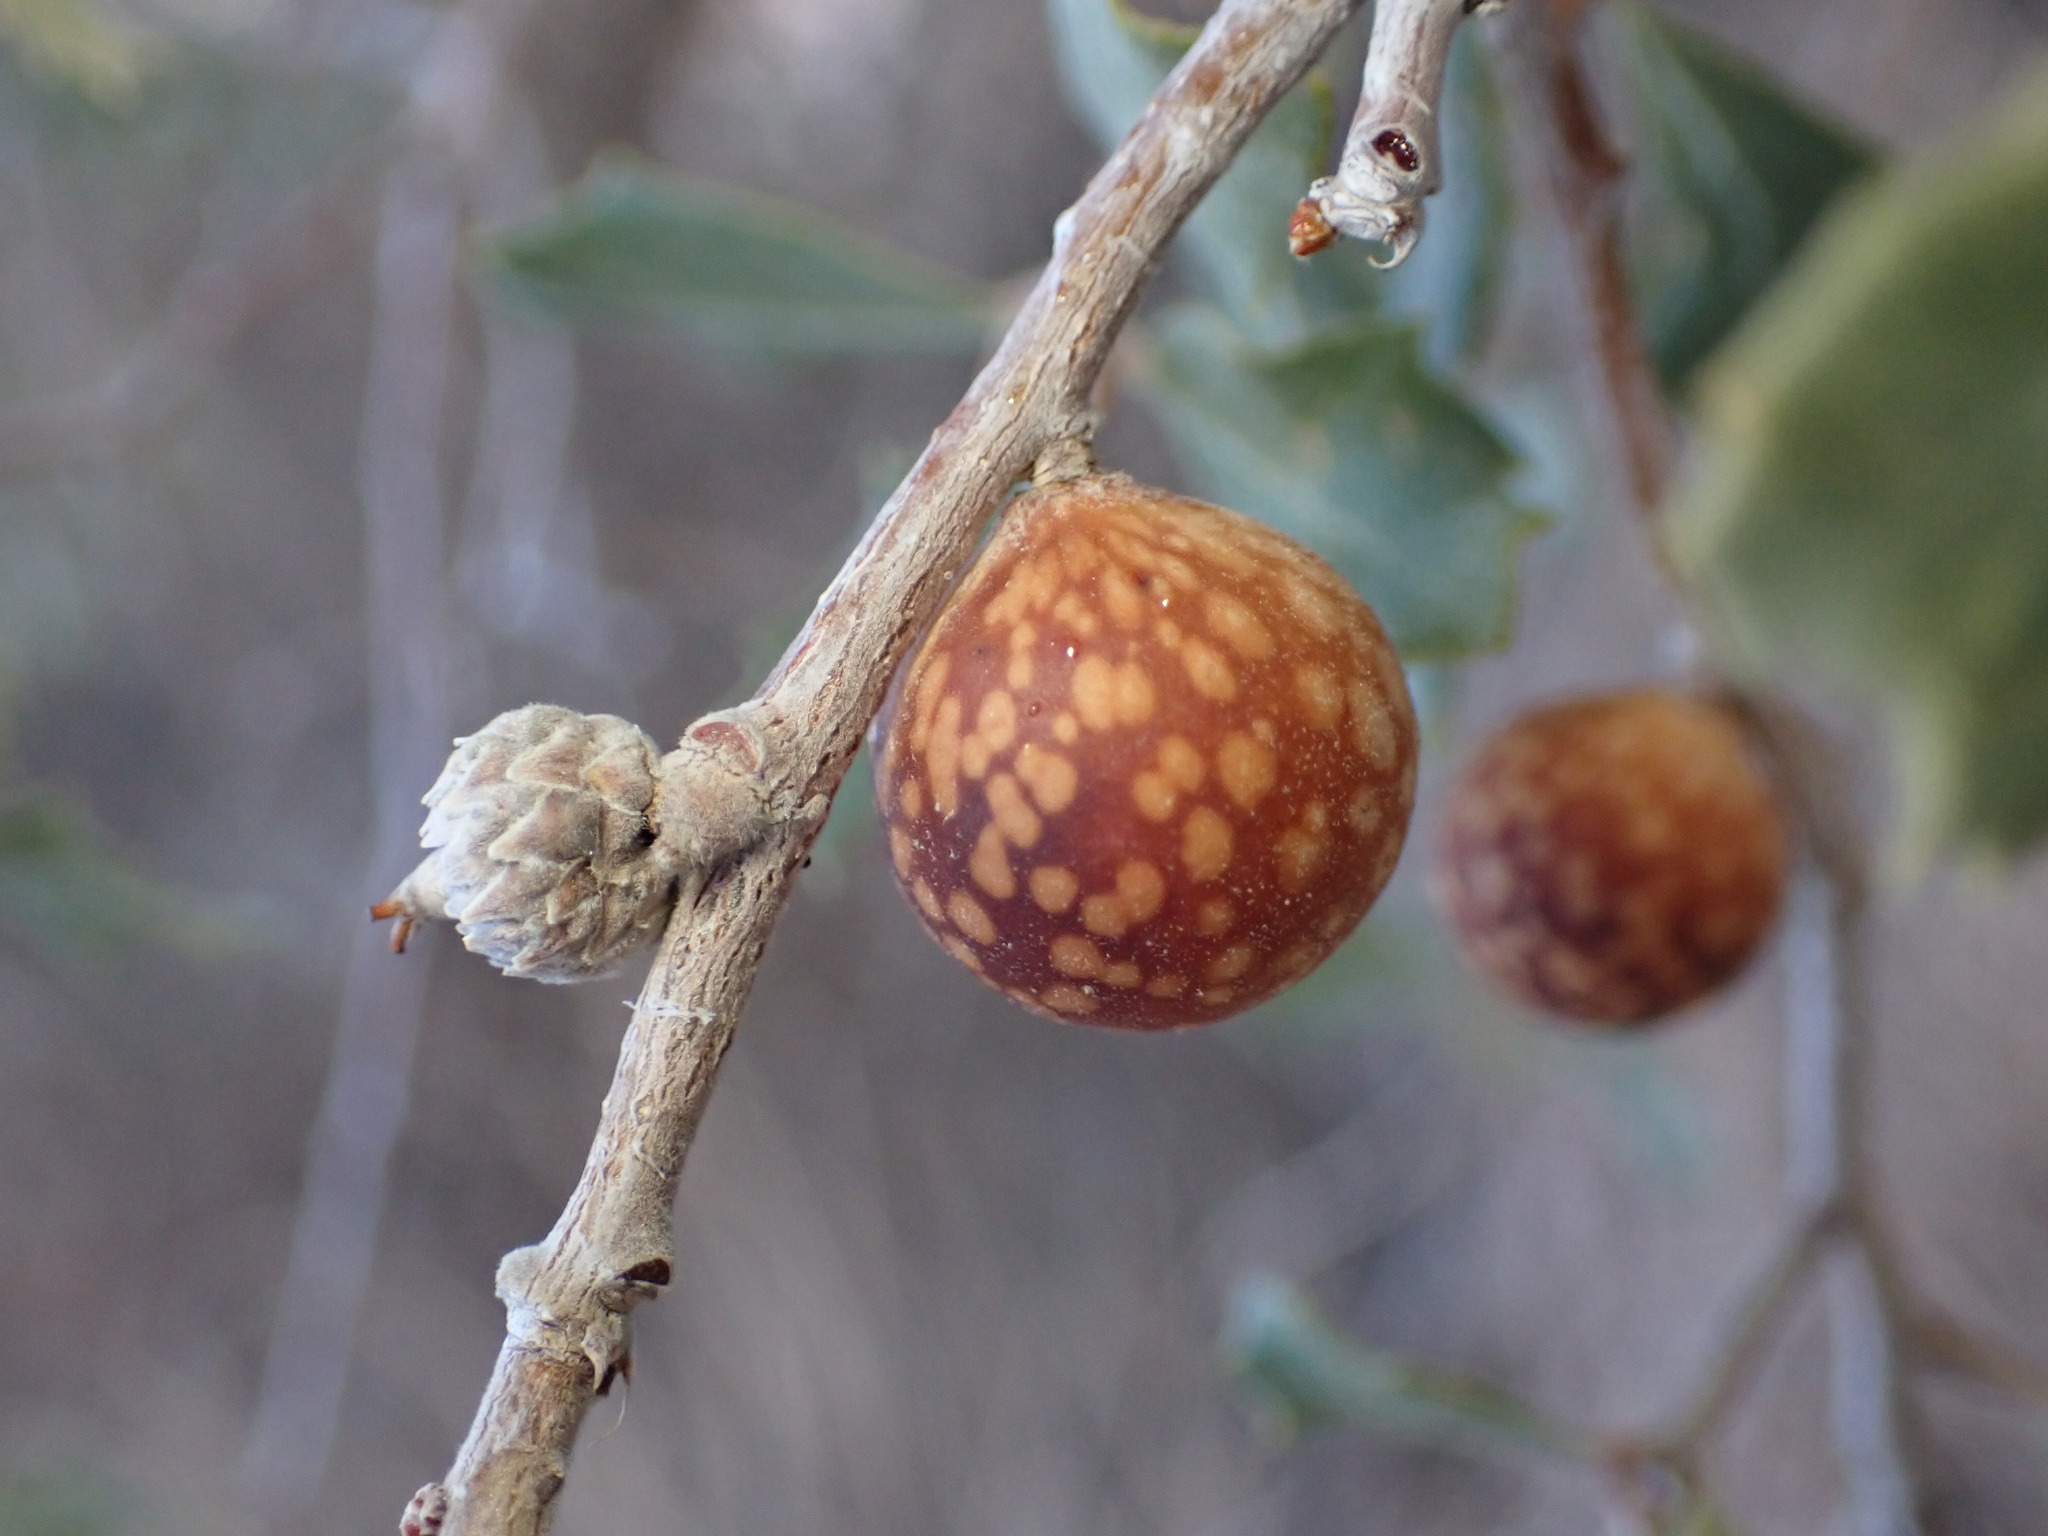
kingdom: Animalia
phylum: Arthropoda
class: Insecta
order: Hymenoptera
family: Cynipidae
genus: Burnettweldia
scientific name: Burnettweldia
